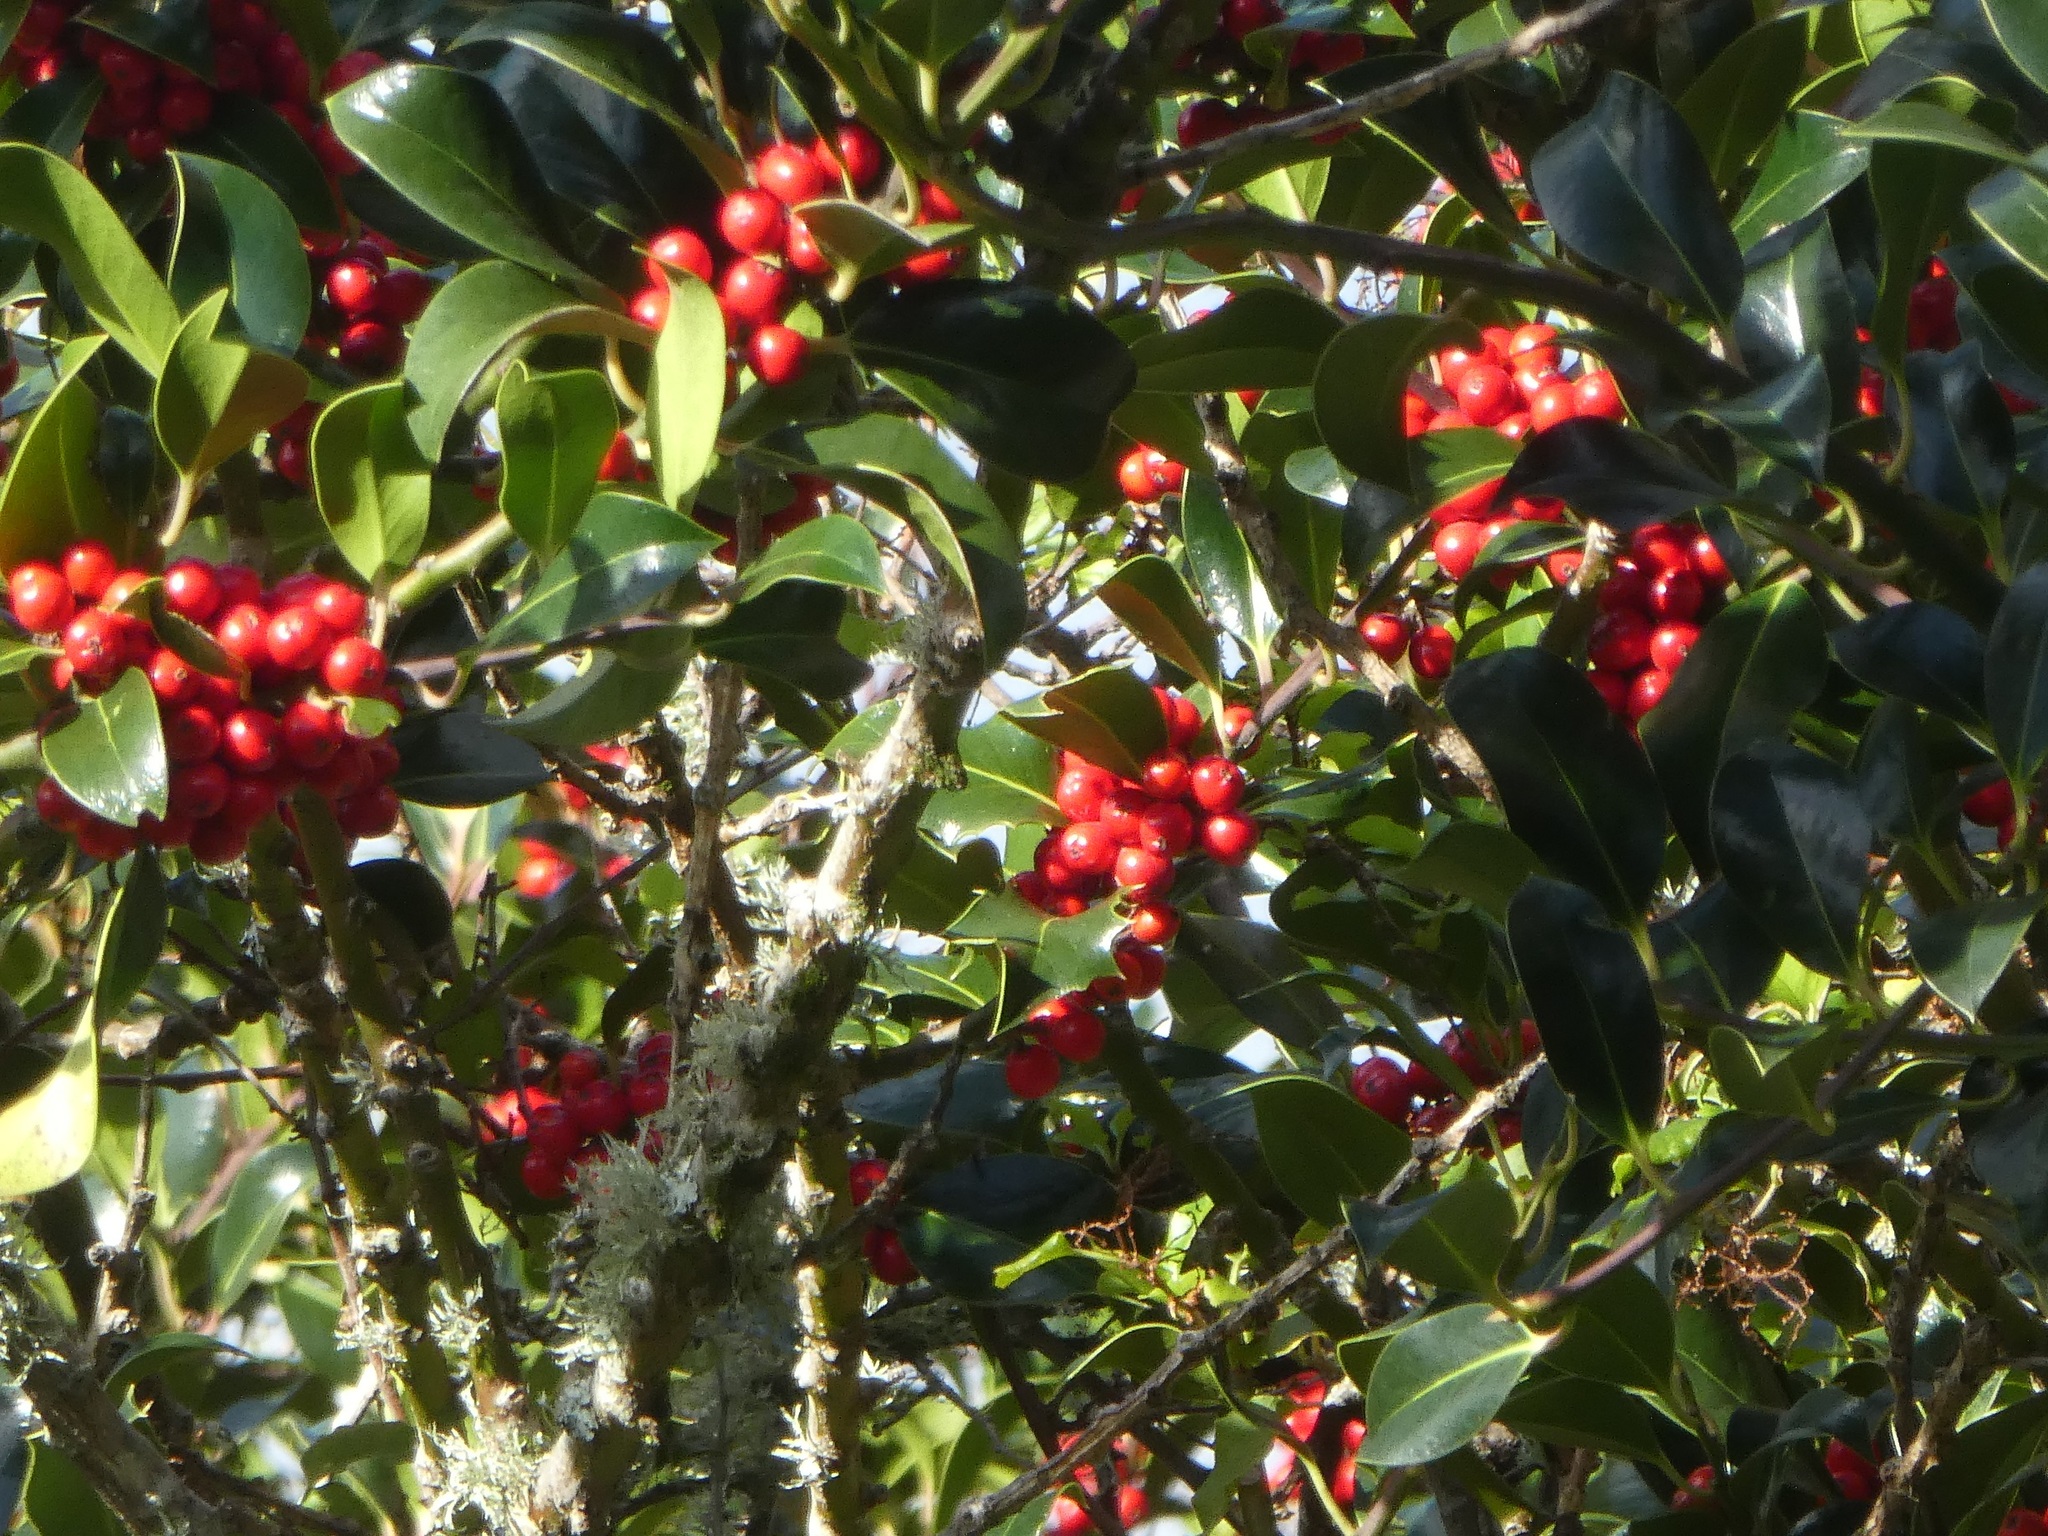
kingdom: Plantae
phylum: Tracheophyta
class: Magnoliopsida
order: Aquifoliales
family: Aquifoliaceae
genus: Ilex
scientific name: Ilex aquifolium
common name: English holly
